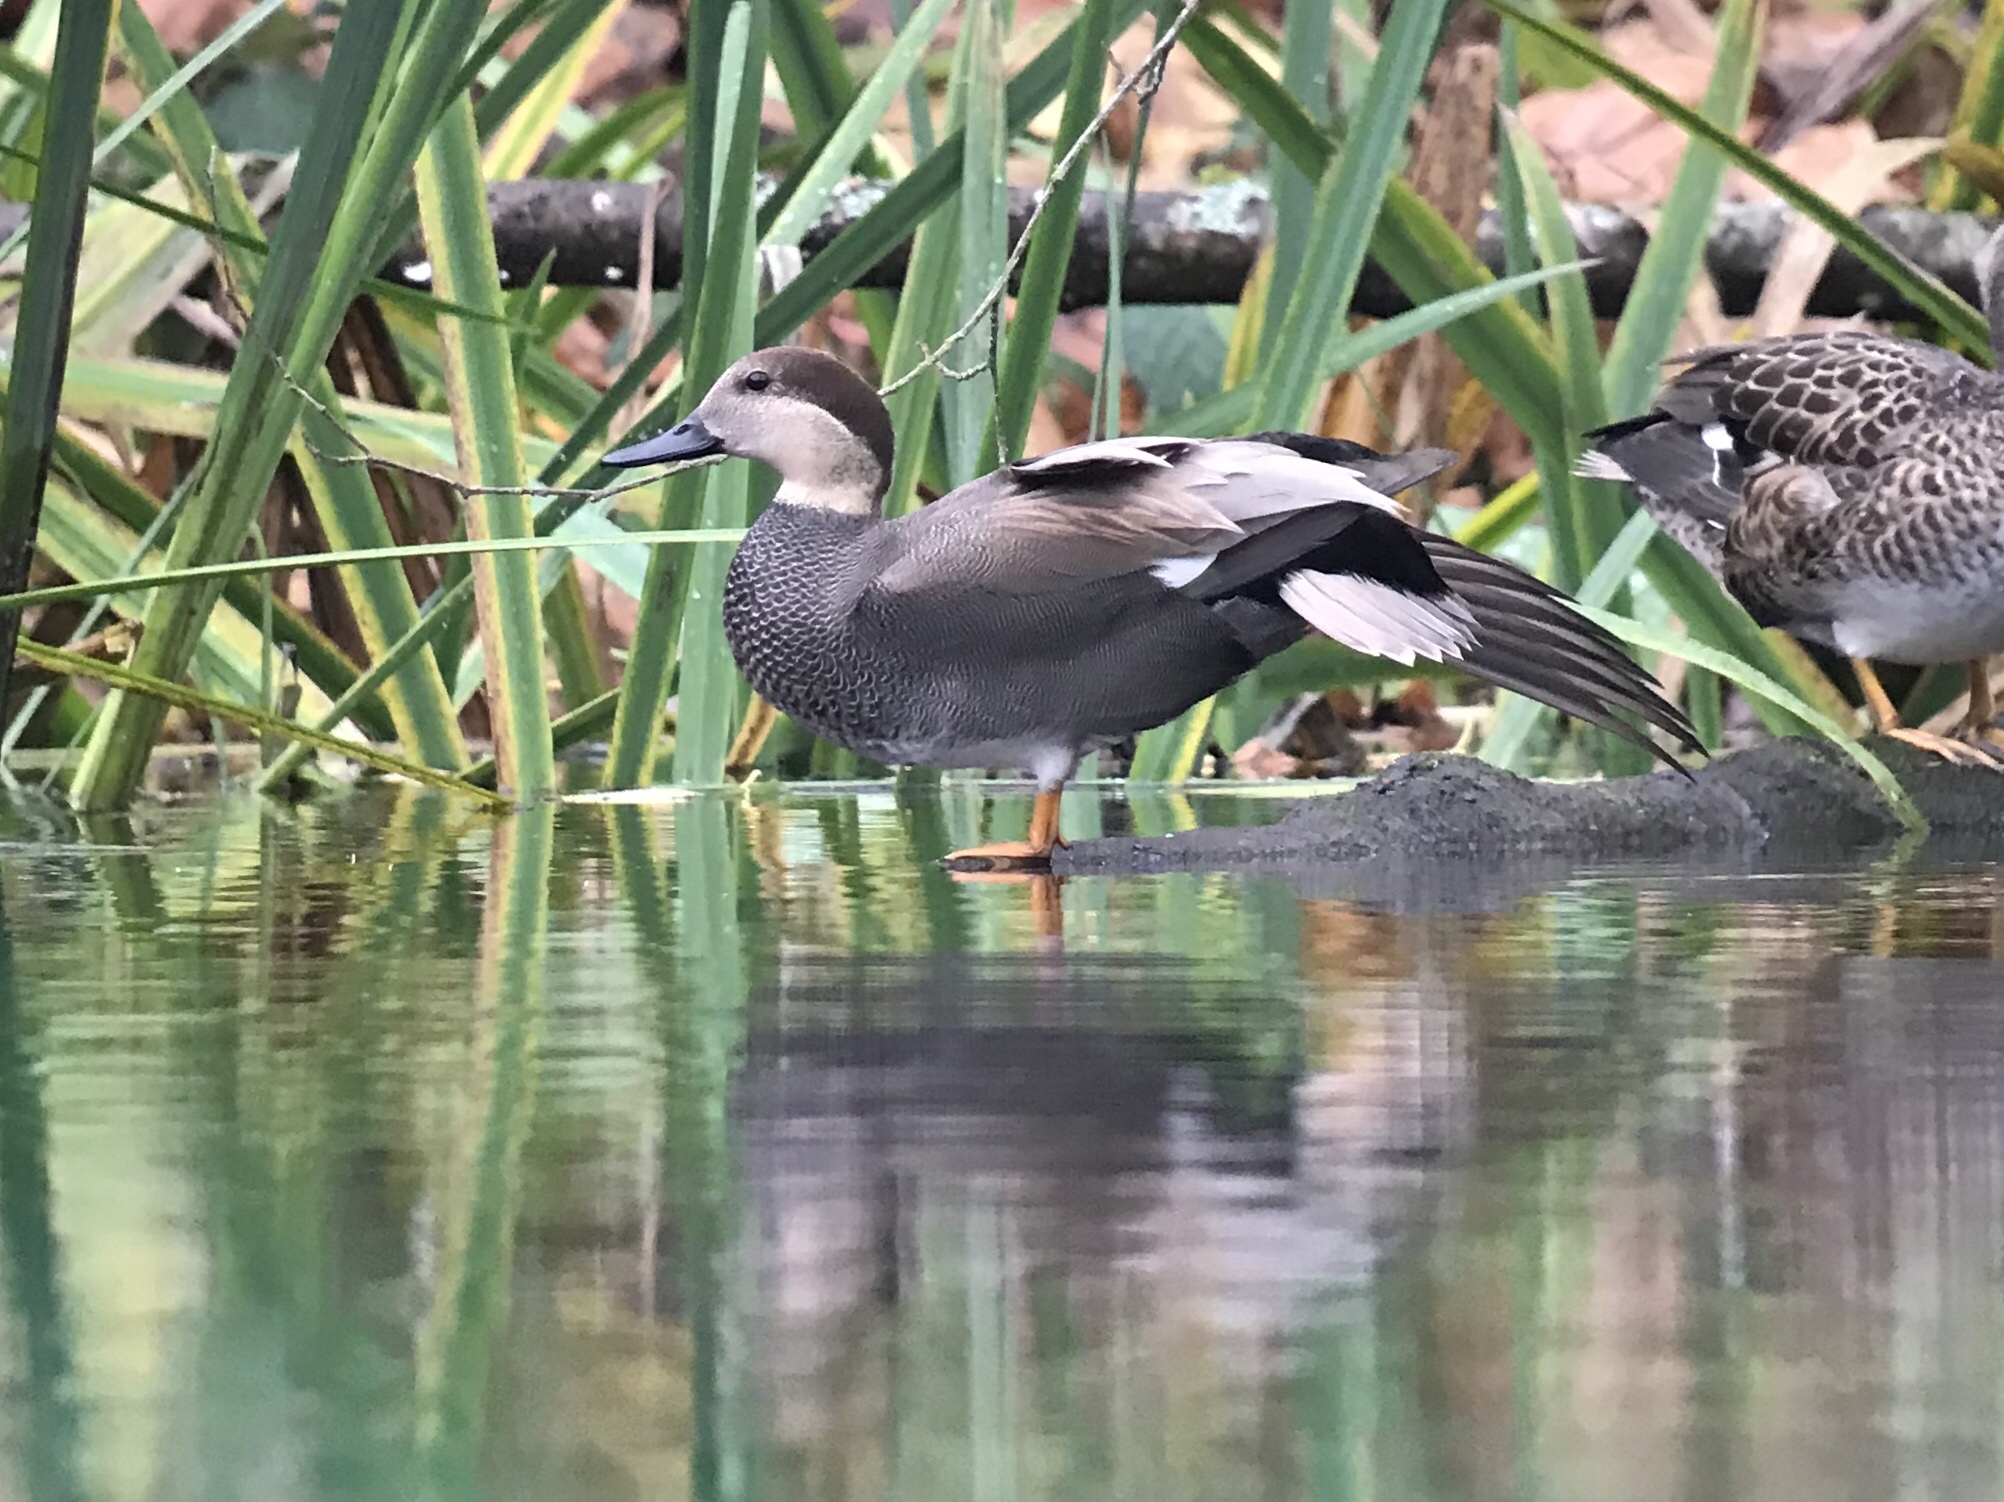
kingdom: Animalia
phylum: Chordata
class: Aves
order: Anseriformes
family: Anatidae
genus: Mareca
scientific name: Mareca strepera
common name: Gadwall
